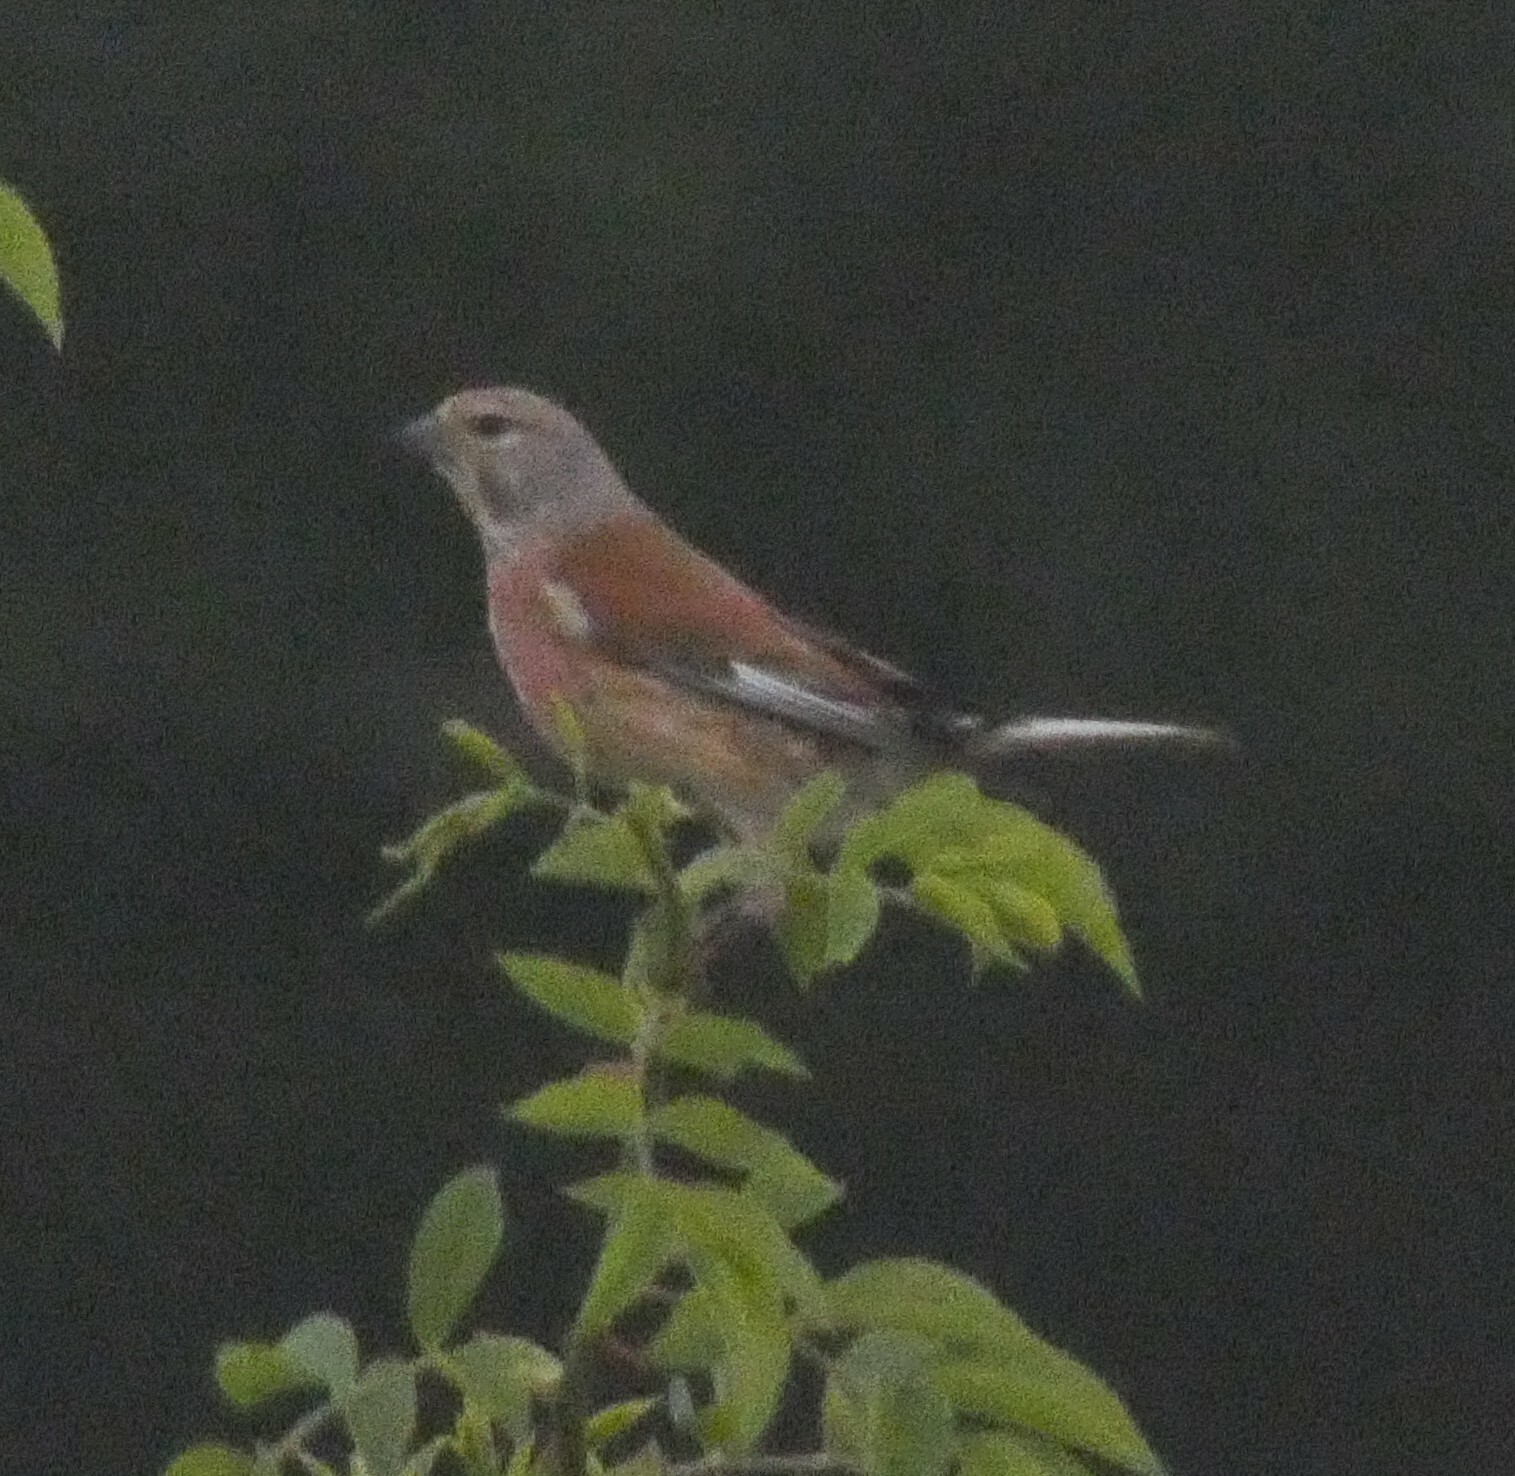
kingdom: Animalia
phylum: Chordata
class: Aves
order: Passeriformes
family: Fringillidae
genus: Linaria
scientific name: Linaria cannabina
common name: Common linnet
